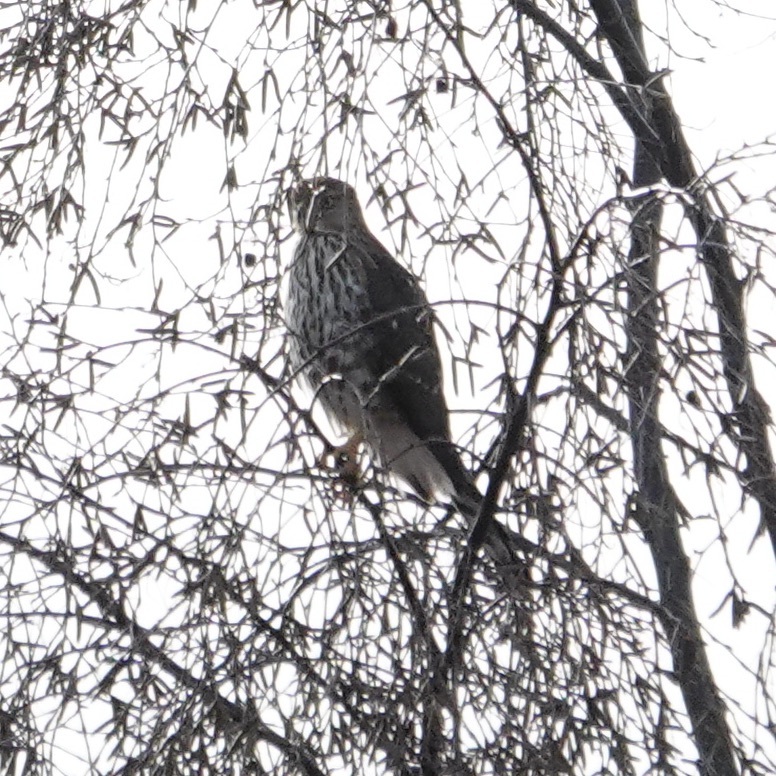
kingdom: Animalia
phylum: Chordata
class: Aves
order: Accipitriformes
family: Accipitridae
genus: Accipiter
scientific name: Accipiter cooperii
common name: Cooper's hawk
